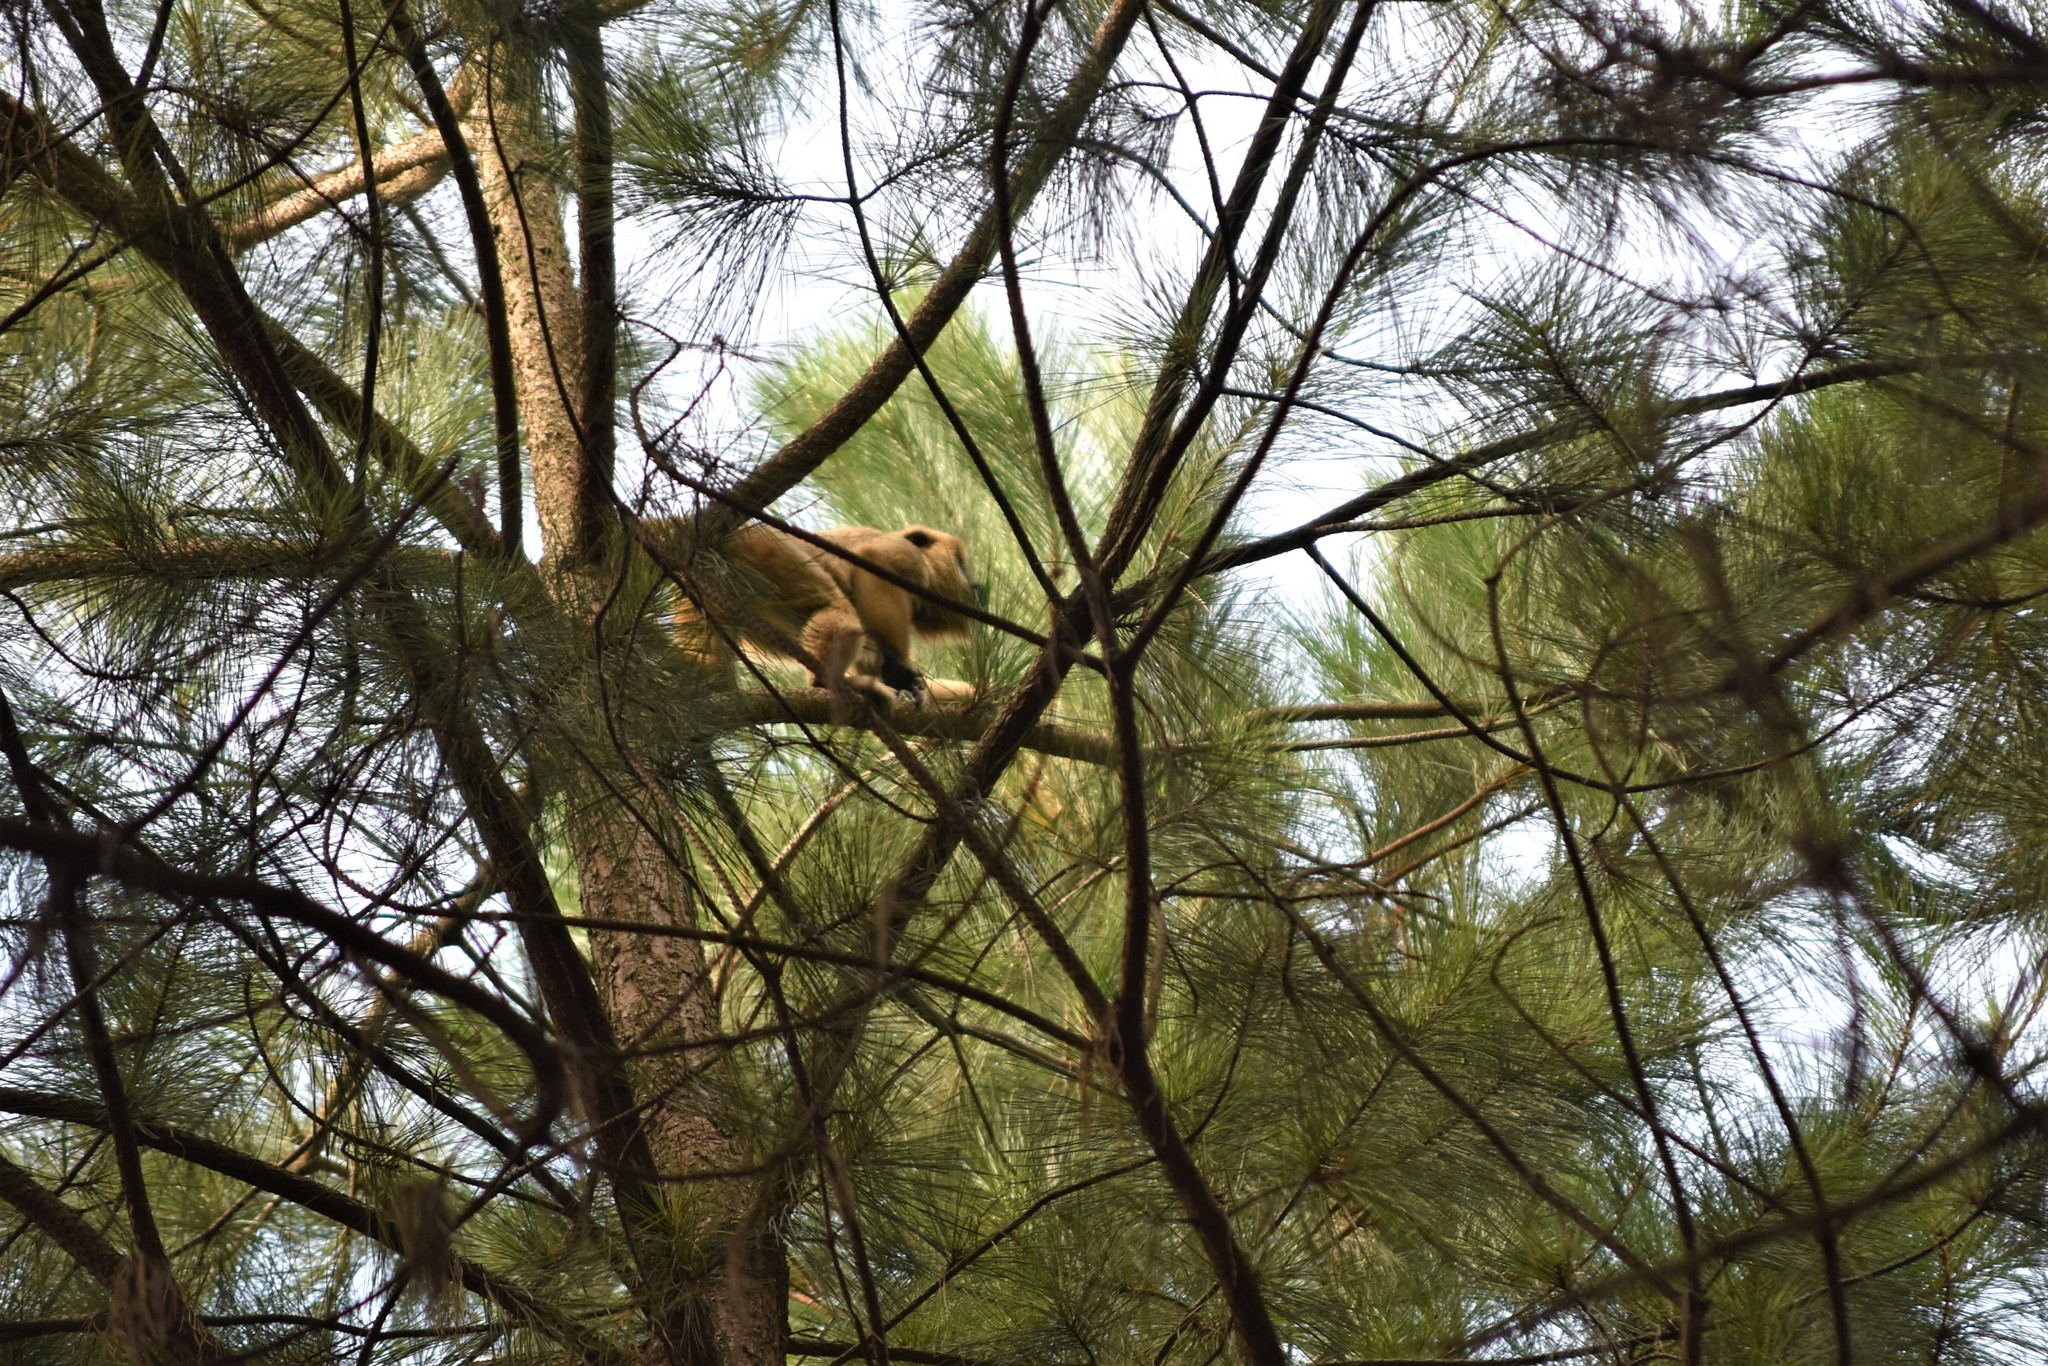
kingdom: Animalia
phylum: Chordata
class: Mammalia
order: Primates
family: Atelidae
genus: Alouatta
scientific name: Alouatta caraya
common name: Black howler
